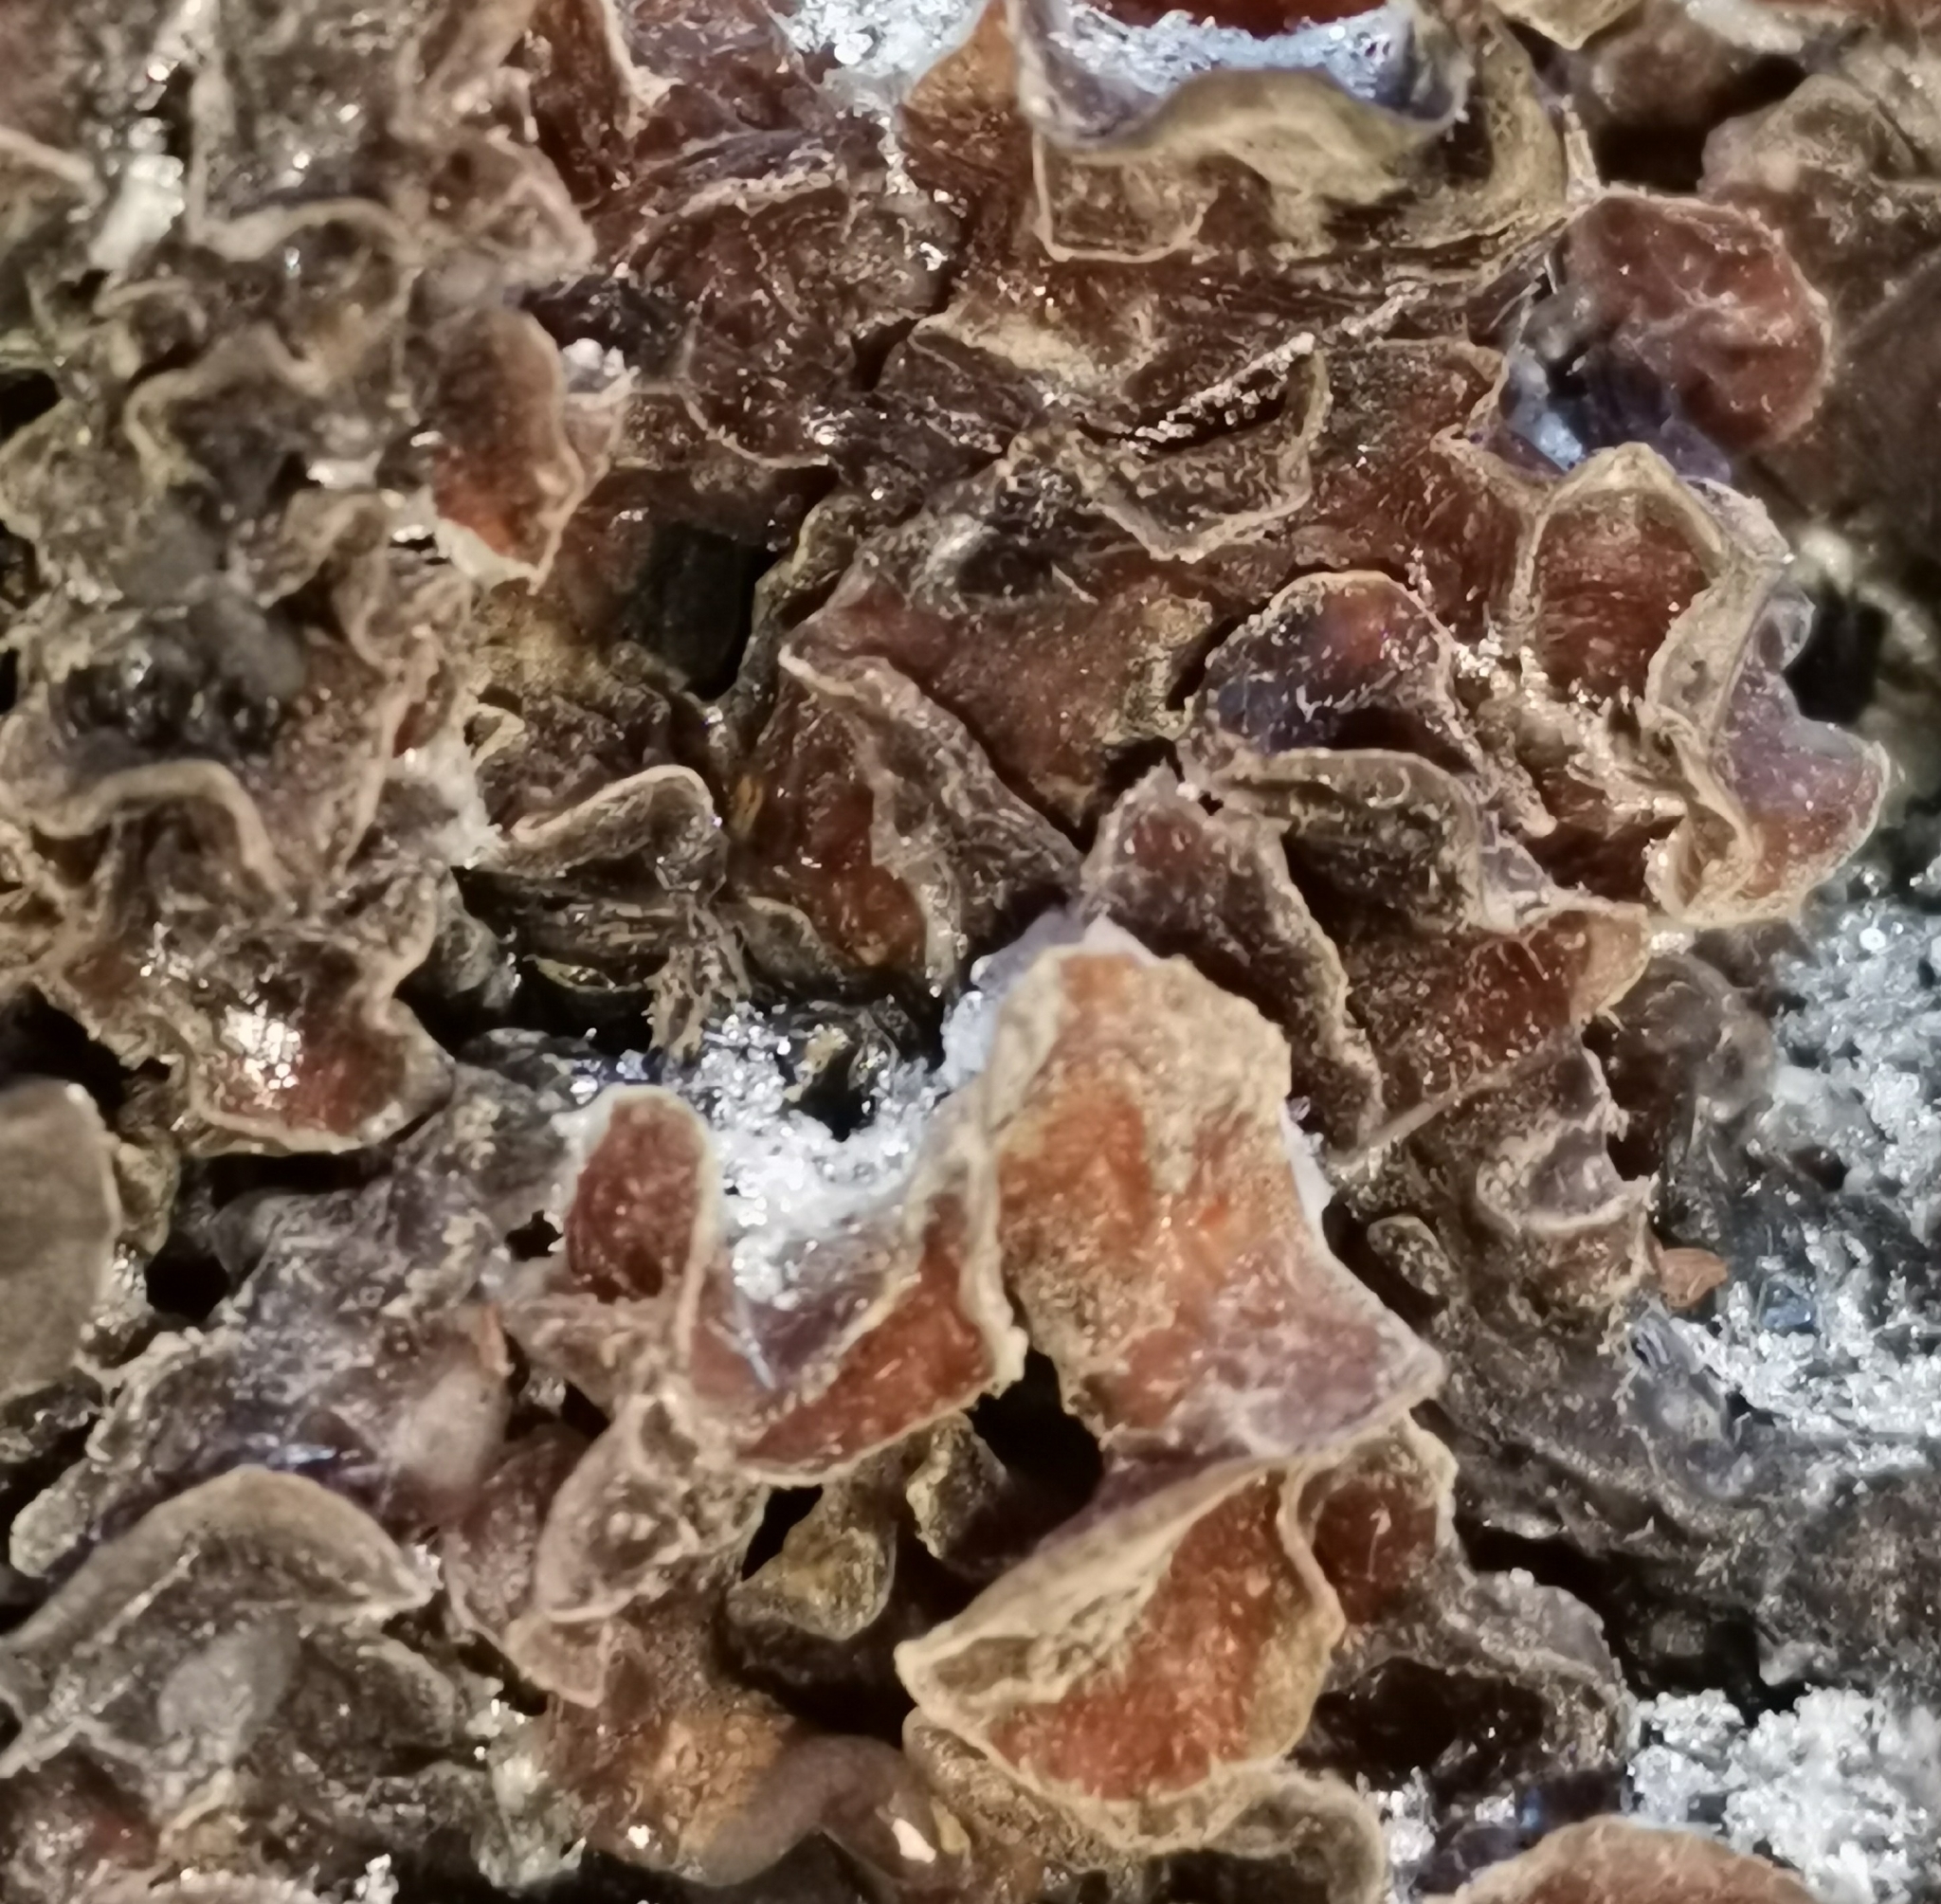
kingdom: Fungi
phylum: Basidiomycota
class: Tremellomycetes
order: Tremellales
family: Tremellaceae
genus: Phaeotremella
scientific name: Phaeotremella frondosa
